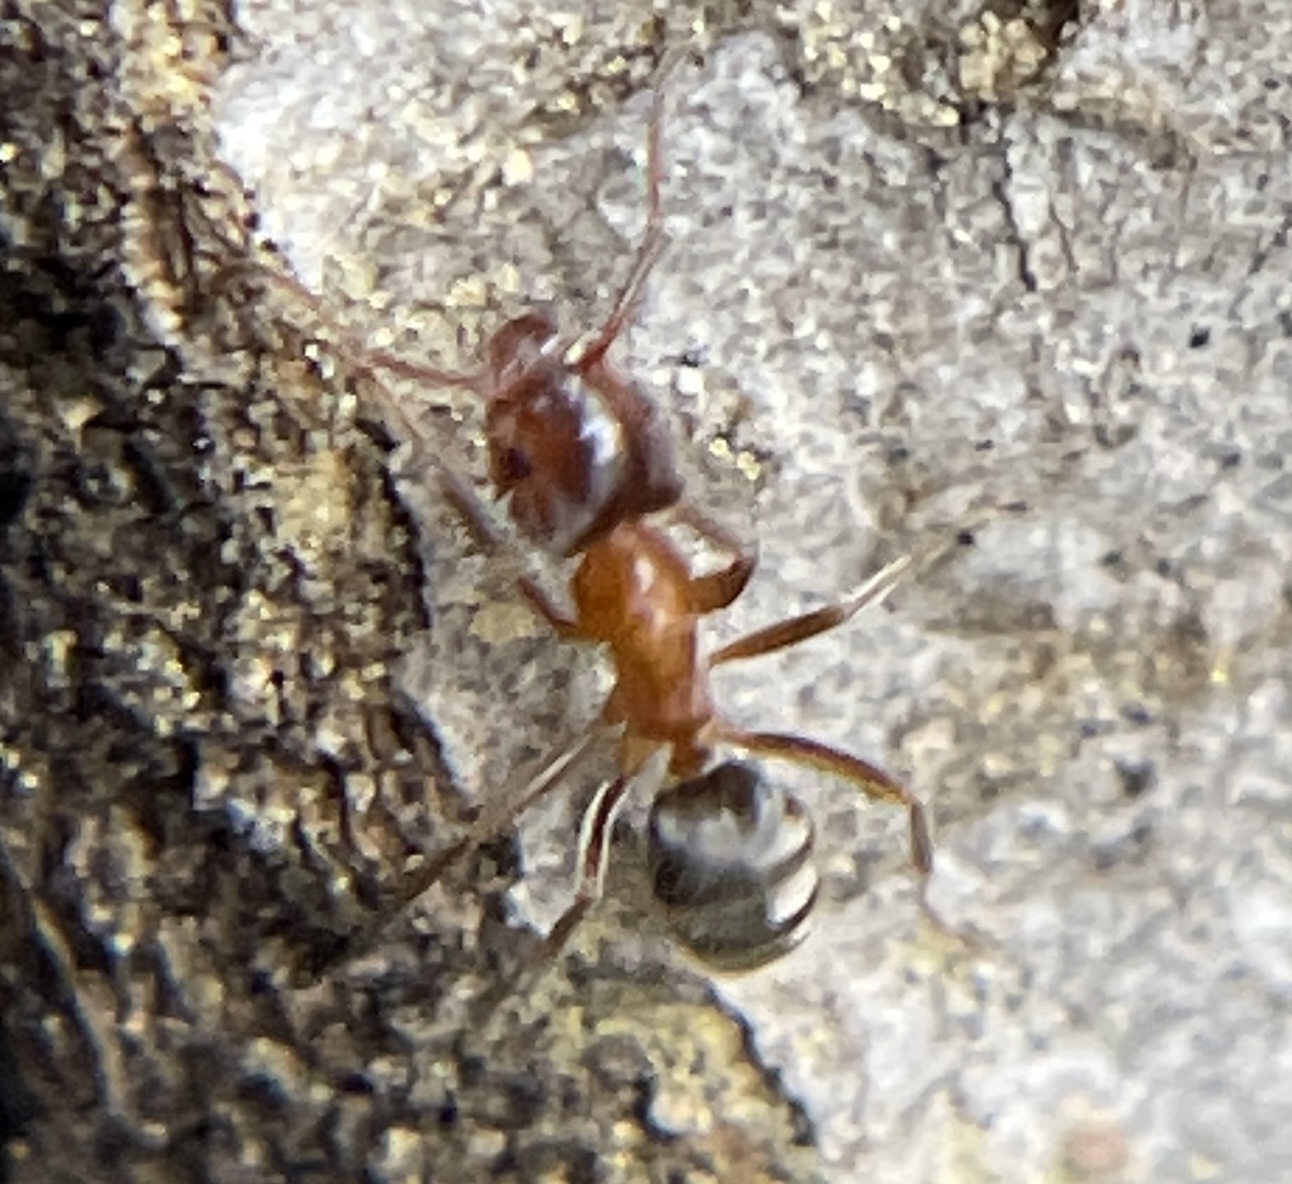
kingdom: Animalia
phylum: Arthropoda
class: Insecta
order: Hymenoptera
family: Formicidae
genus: Liometopum
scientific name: Liometopum occidentale
